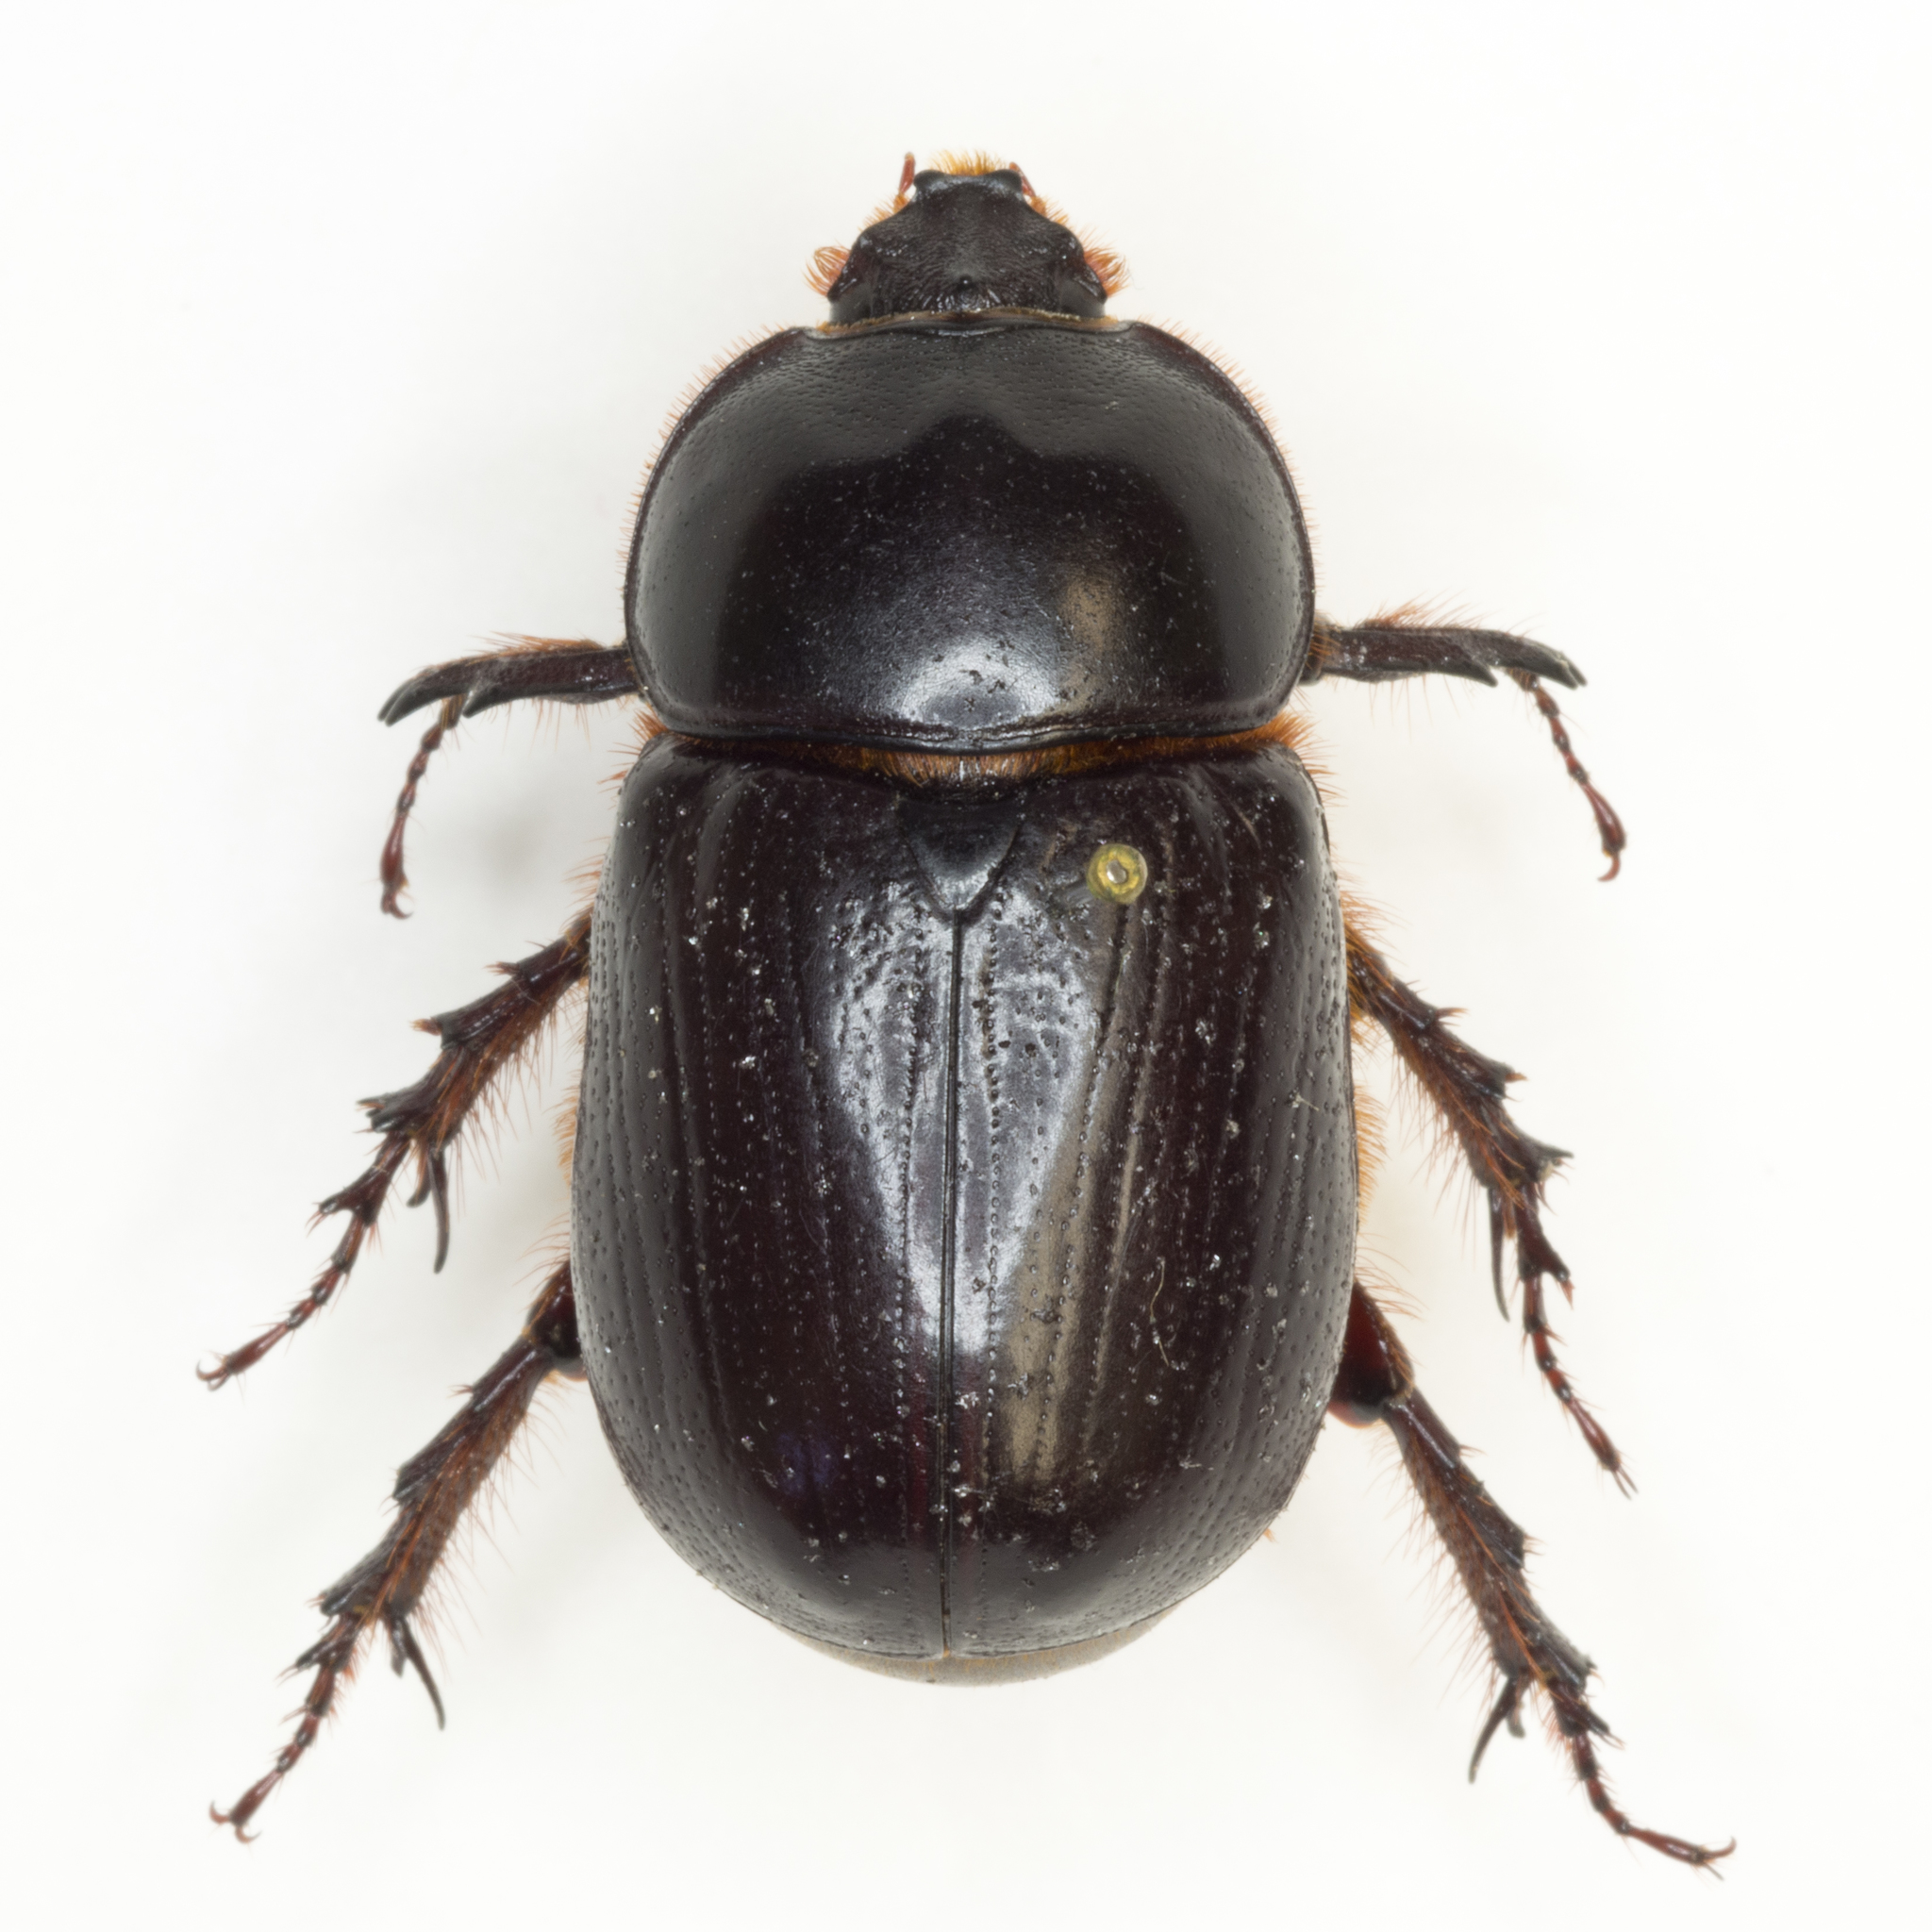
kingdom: Animalia
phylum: Arthropoda
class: Insecta
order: Coleoptera
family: Scarabaeidae
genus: Xyloryctes
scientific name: Xyloryctes thestalus
